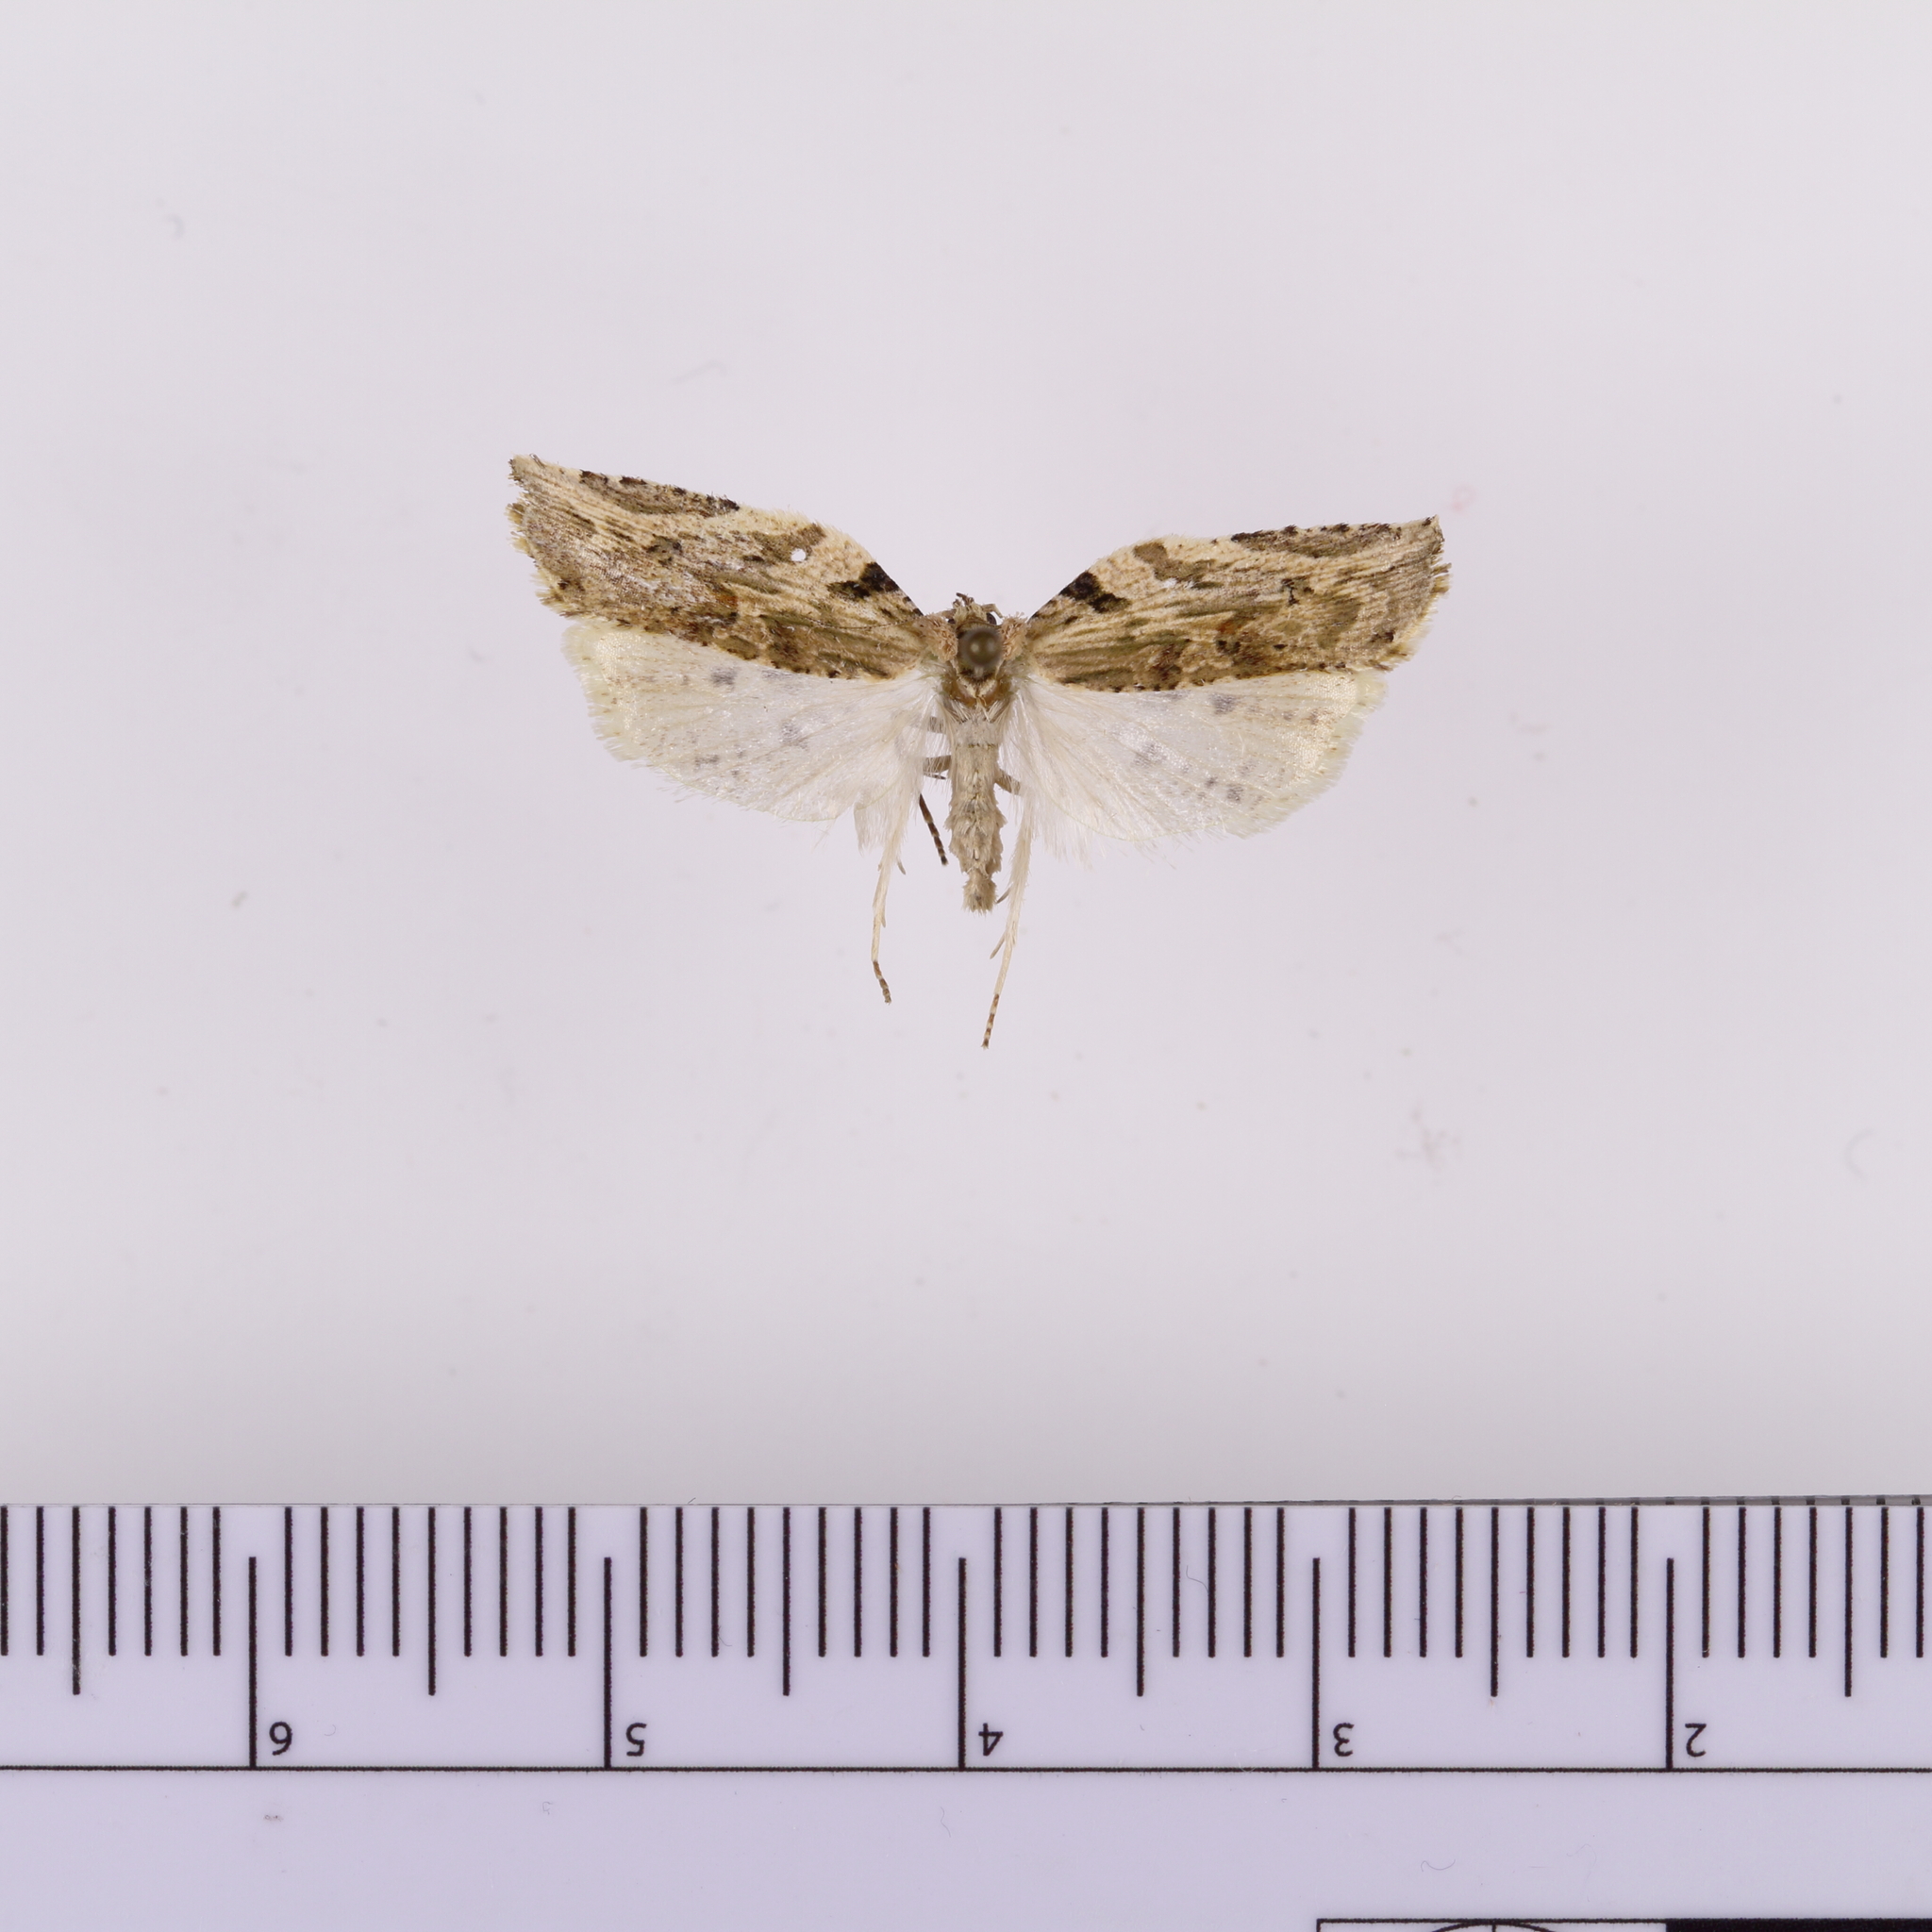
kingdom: Animalia
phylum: Arthropoda
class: Insecta
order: Lepidoptera
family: Tortricidae
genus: Epalxiphora
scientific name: Epalxiphora axenana
